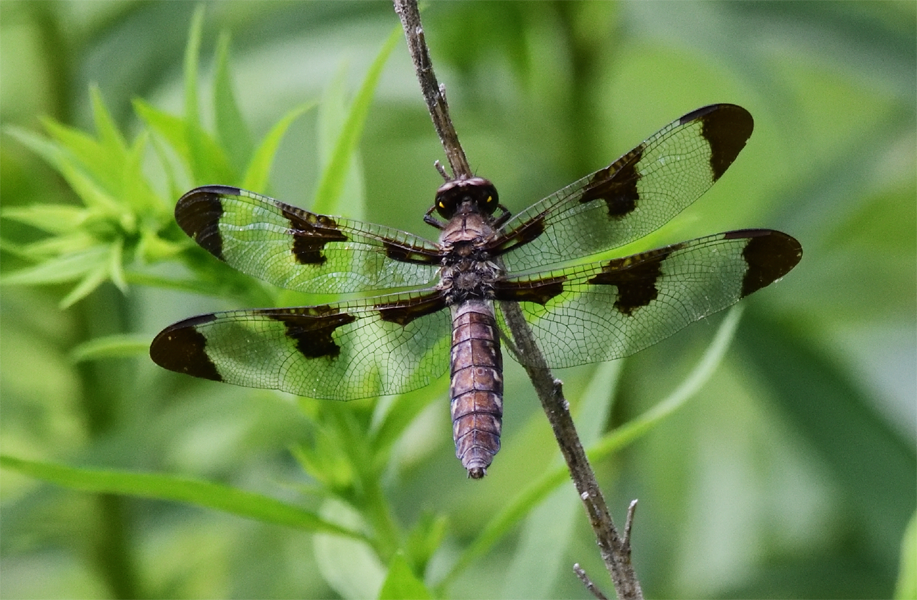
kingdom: Animalia
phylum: Arthropoda
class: Insecta
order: Odonata
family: Libellulidae
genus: Plathemis
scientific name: Plathemis lydia
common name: Common whitetail
